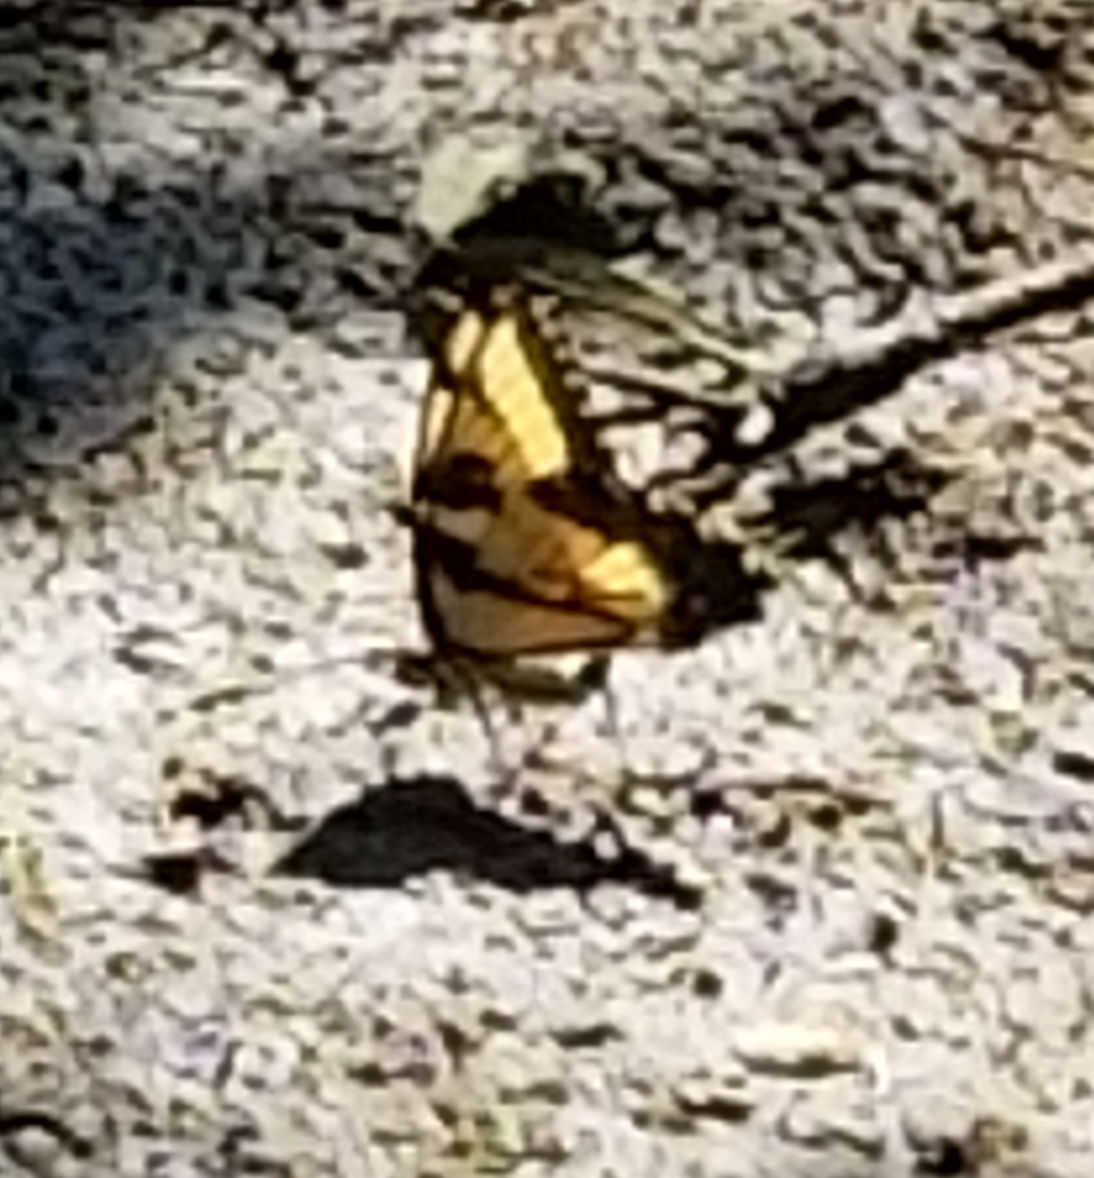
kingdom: Animalia
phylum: Arthropoda
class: Insecta
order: Lepidoptera
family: Papilionidae
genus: Papilio
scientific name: Papilio glaucus
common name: Tiger swallowtail
